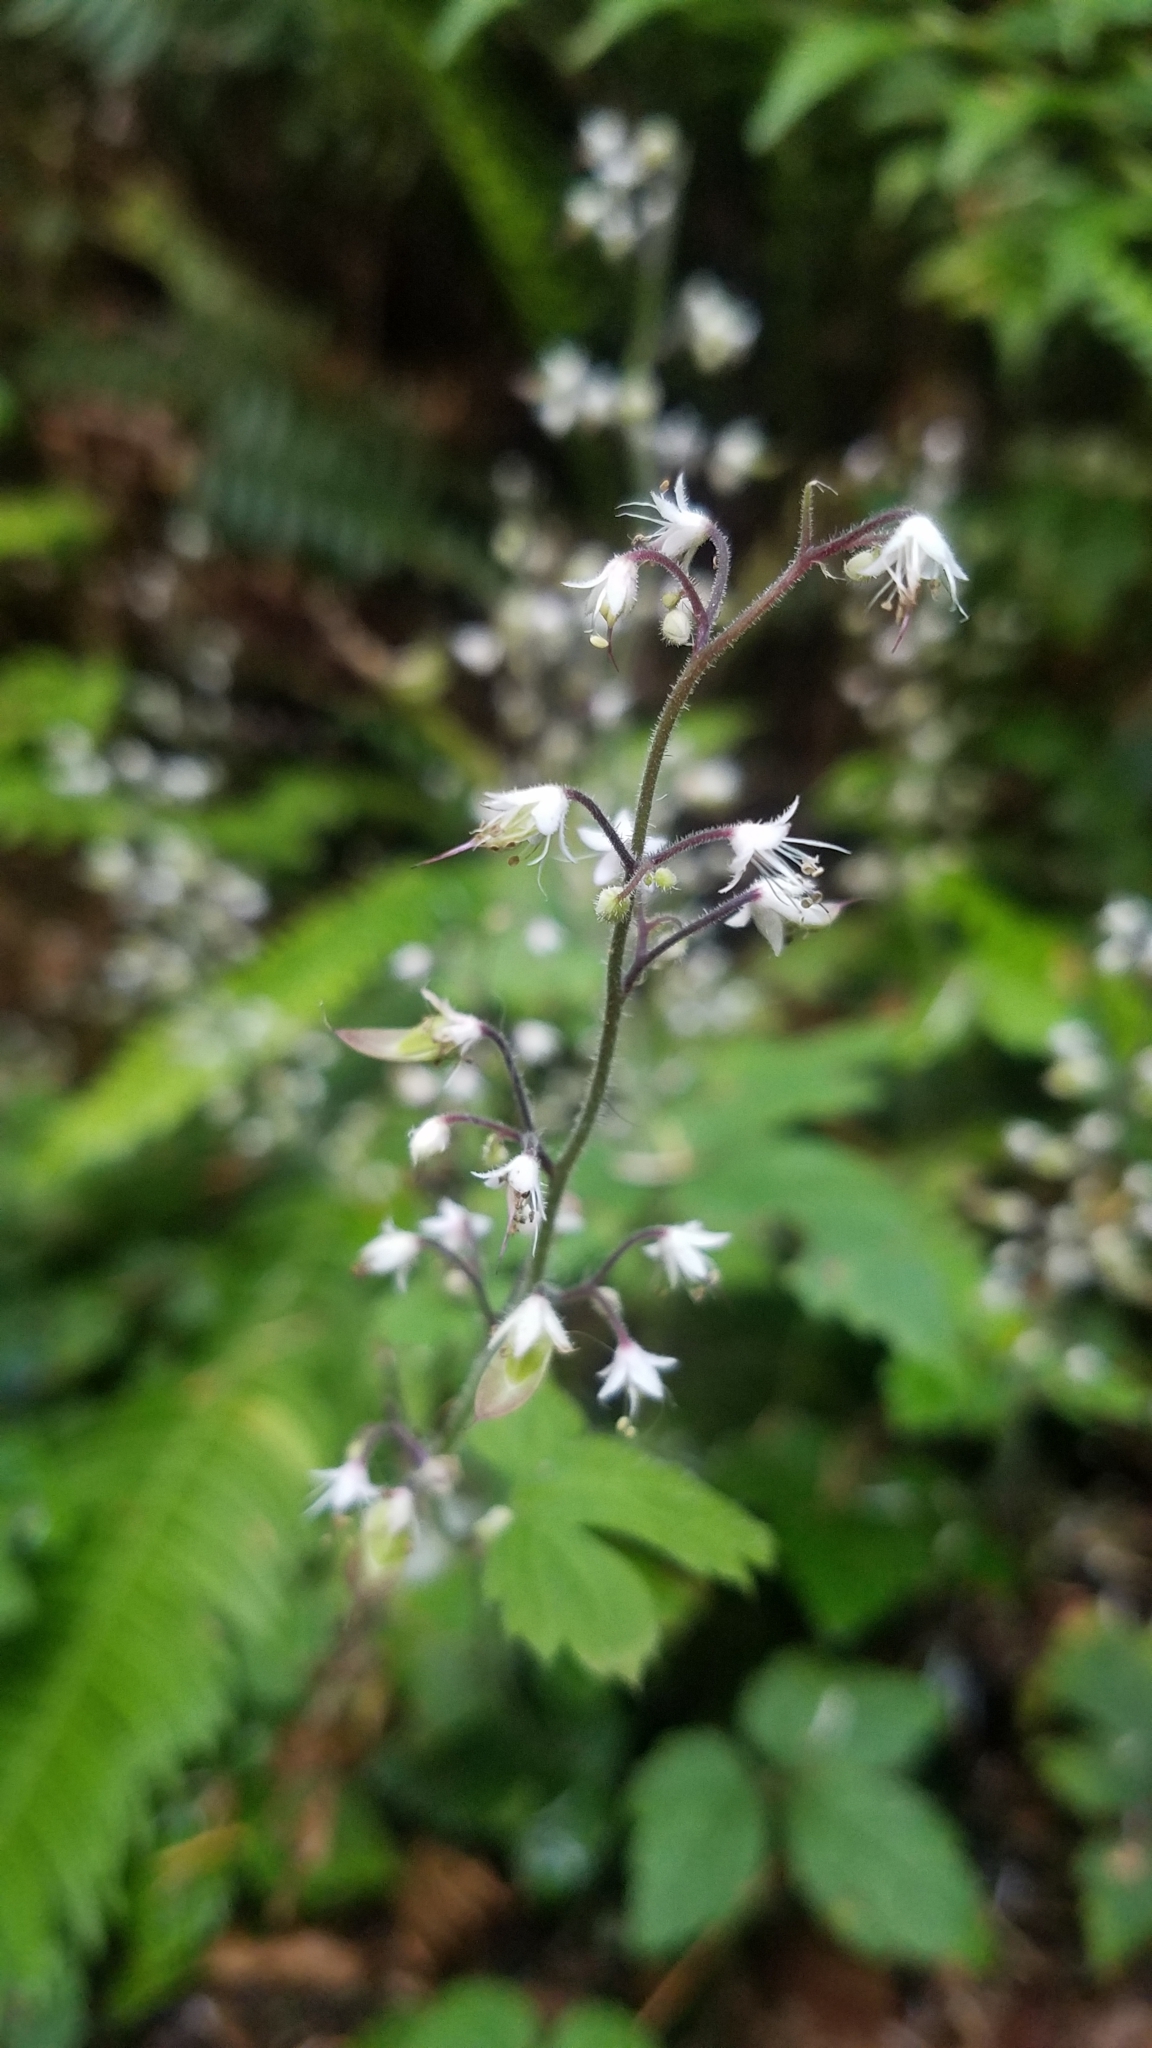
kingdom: Plantae
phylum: Tracheophyta
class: Magnoliopsida
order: Saxifragales
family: Saxifragaceae
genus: Tiarella
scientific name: Tiarella trifoliata
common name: Sugar-scoop
